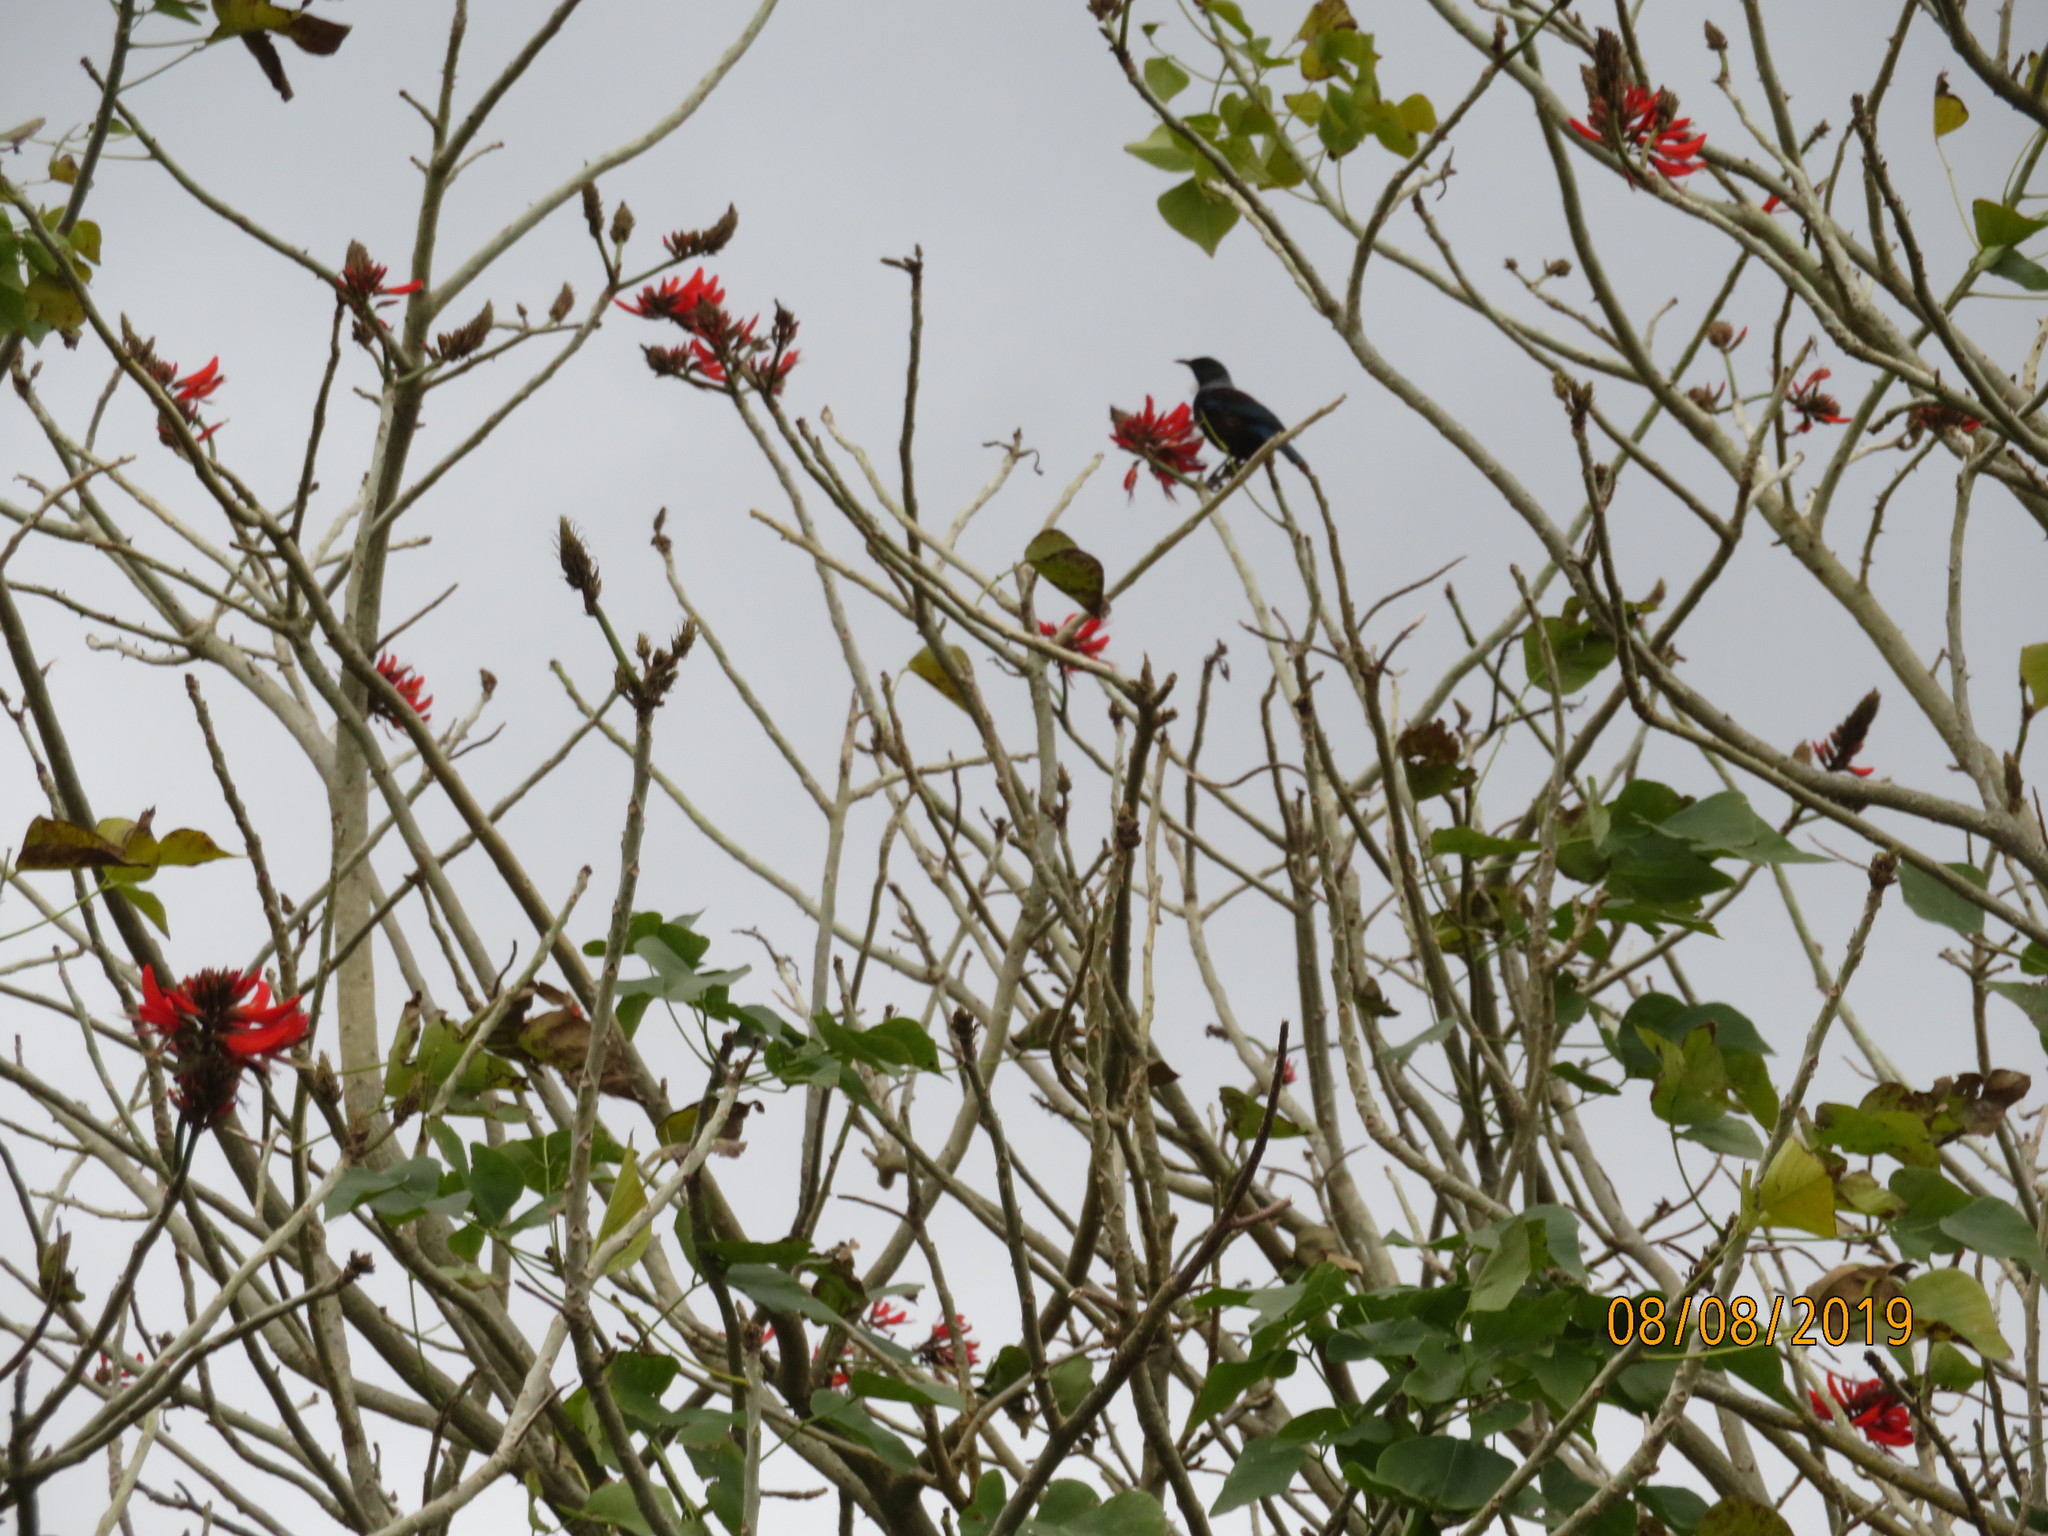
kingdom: Animalia
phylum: Chordata
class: Aves
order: Passeriformes
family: Meliphagidae
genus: Prosthemadera
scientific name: Prosthemadera novaeseelandiae
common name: Tui
